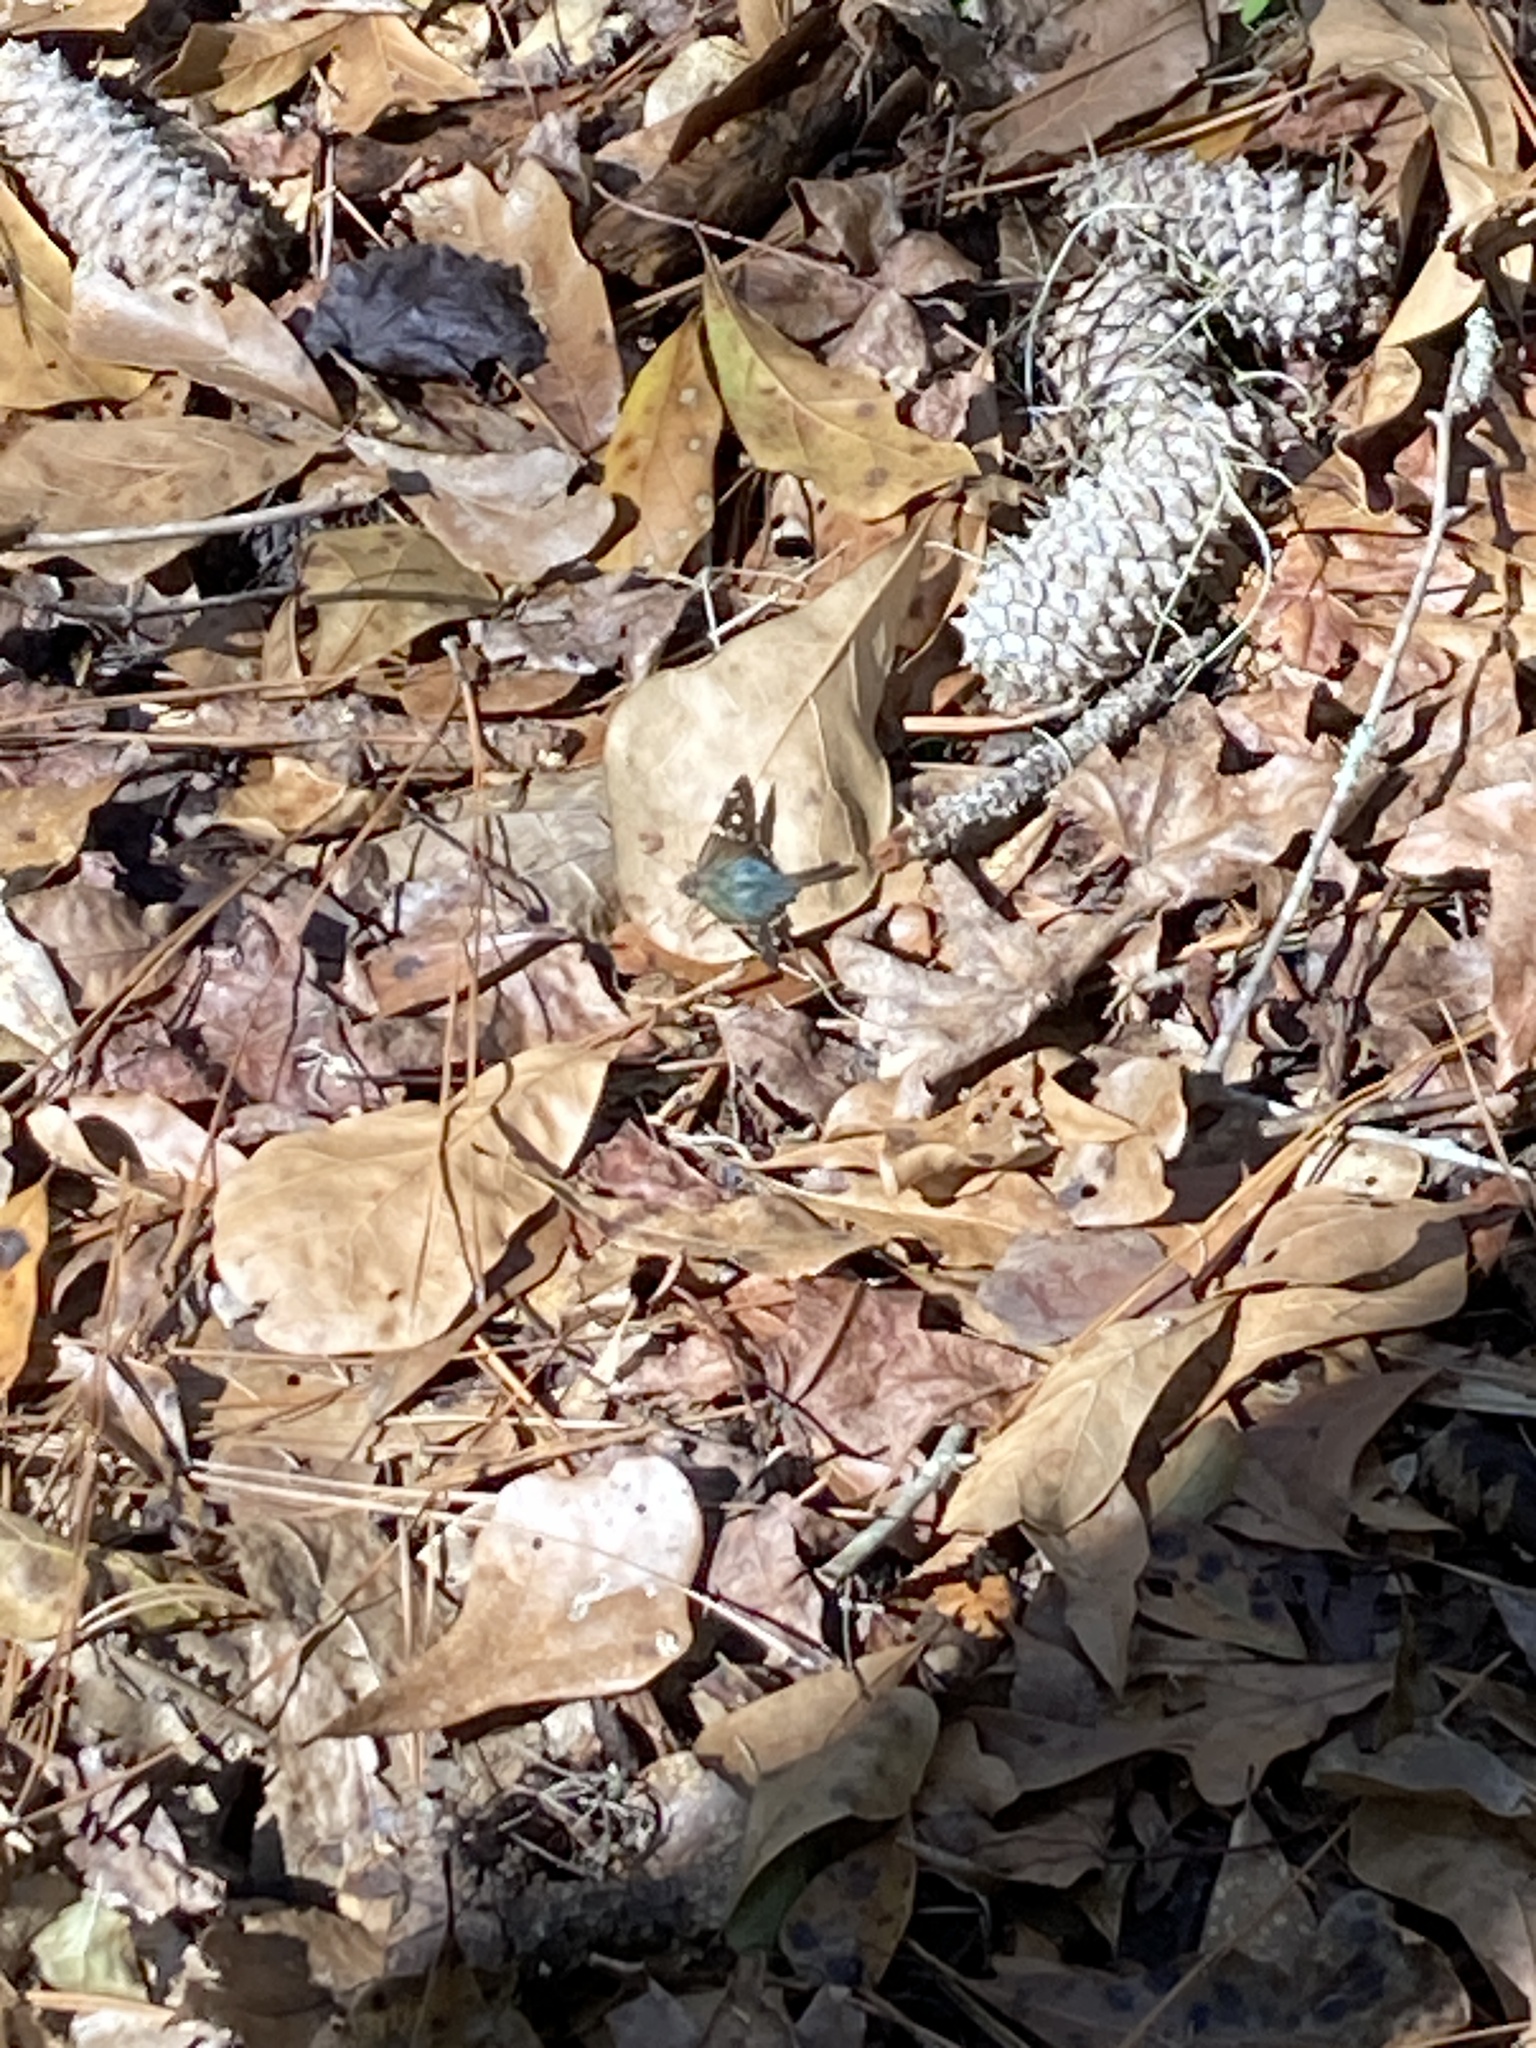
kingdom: Animalia
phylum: Arthropoda
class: Insecta
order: Lepidoptera
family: Hesperiidae
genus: Urbanus
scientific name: Urbanus proteus
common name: Long-tailed skipper
